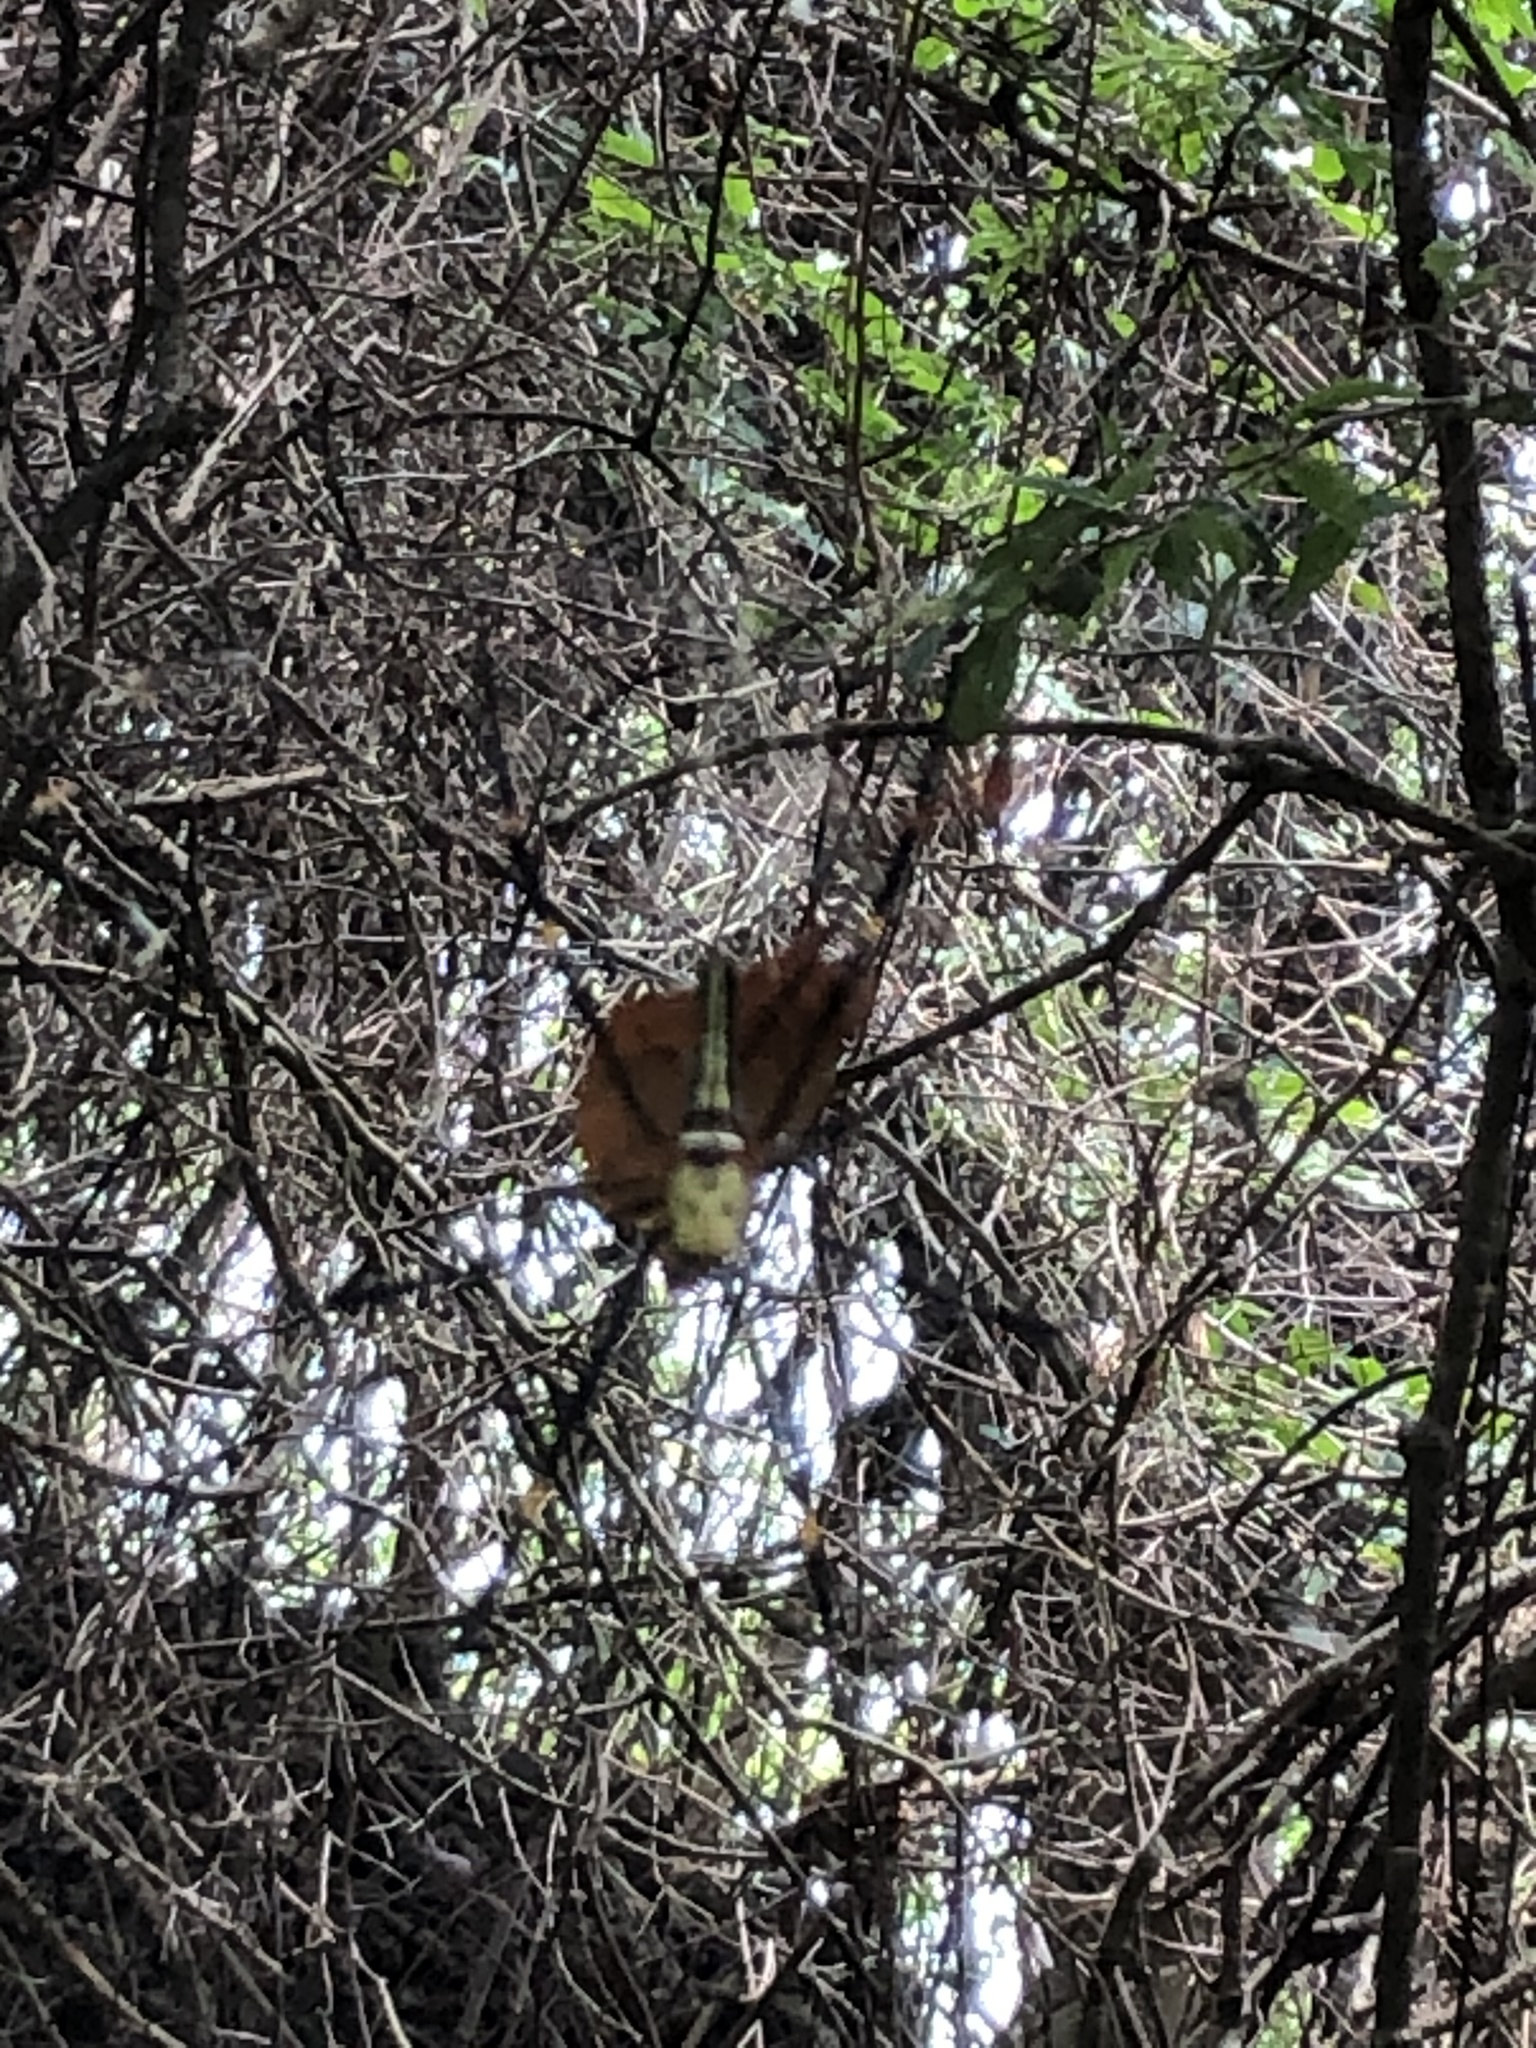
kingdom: Animalia
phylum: Arthropoda
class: Arachnida
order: Araneae
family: Araneidae
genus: Nephila
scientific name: Nephila pilipes
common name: Giant golden orb weaver
